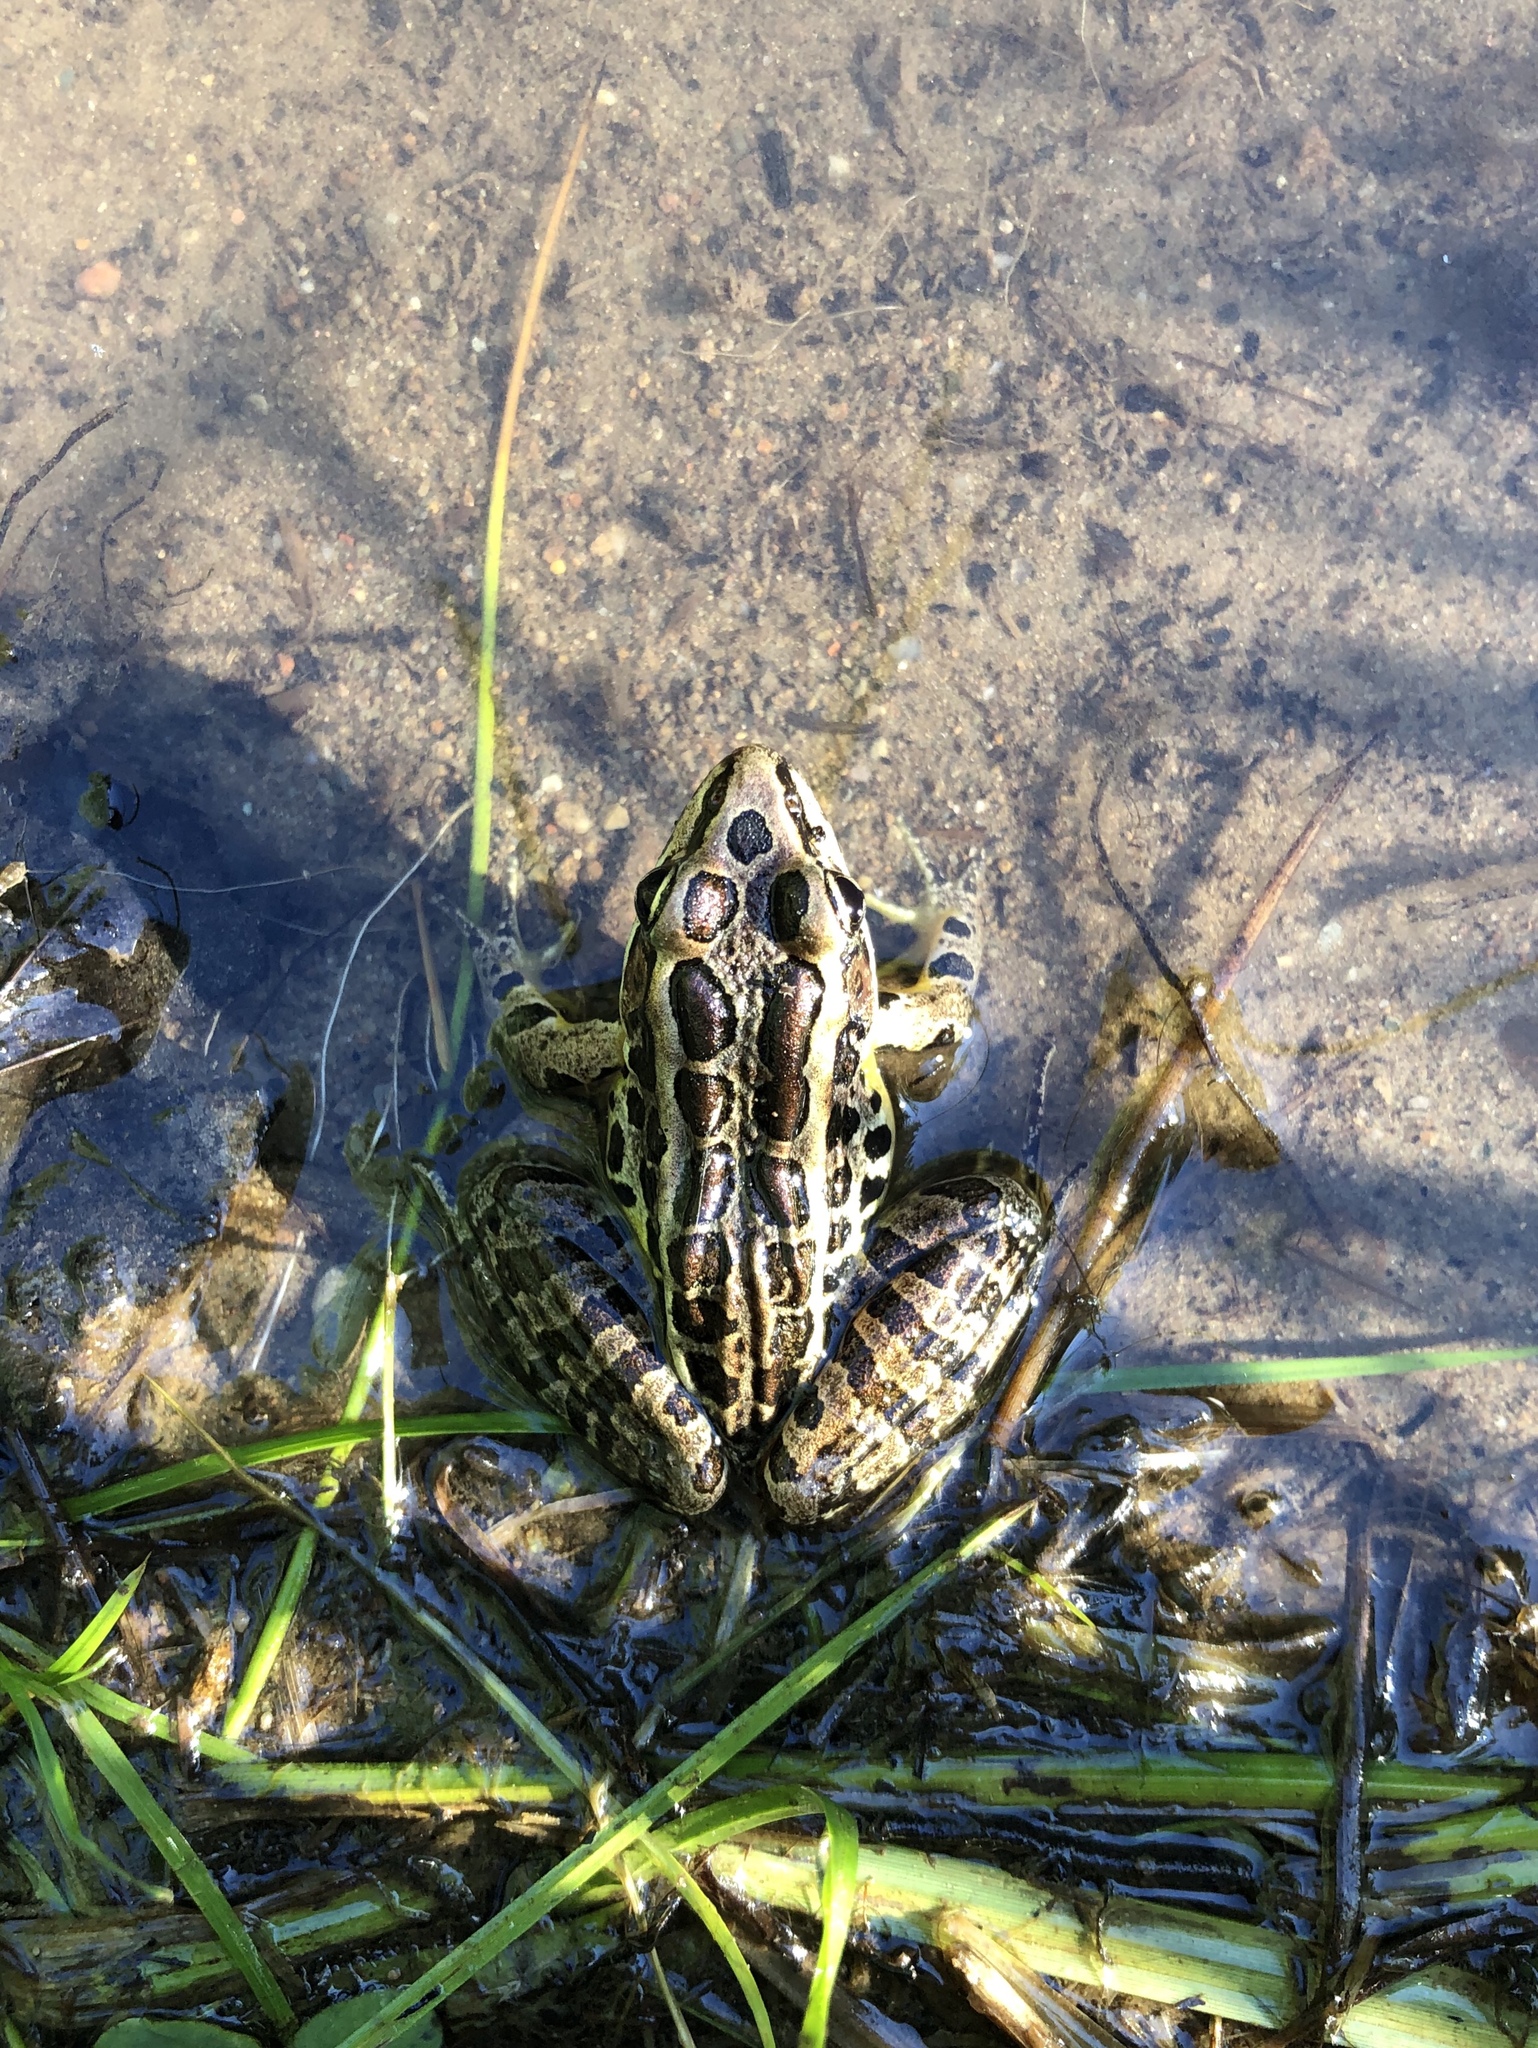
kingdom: Animalia
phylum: Chordata
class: Amphibia
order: Anura
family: Ranidae
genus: Lithobates
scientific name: Lithobates palustris
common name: Pickerel frog
